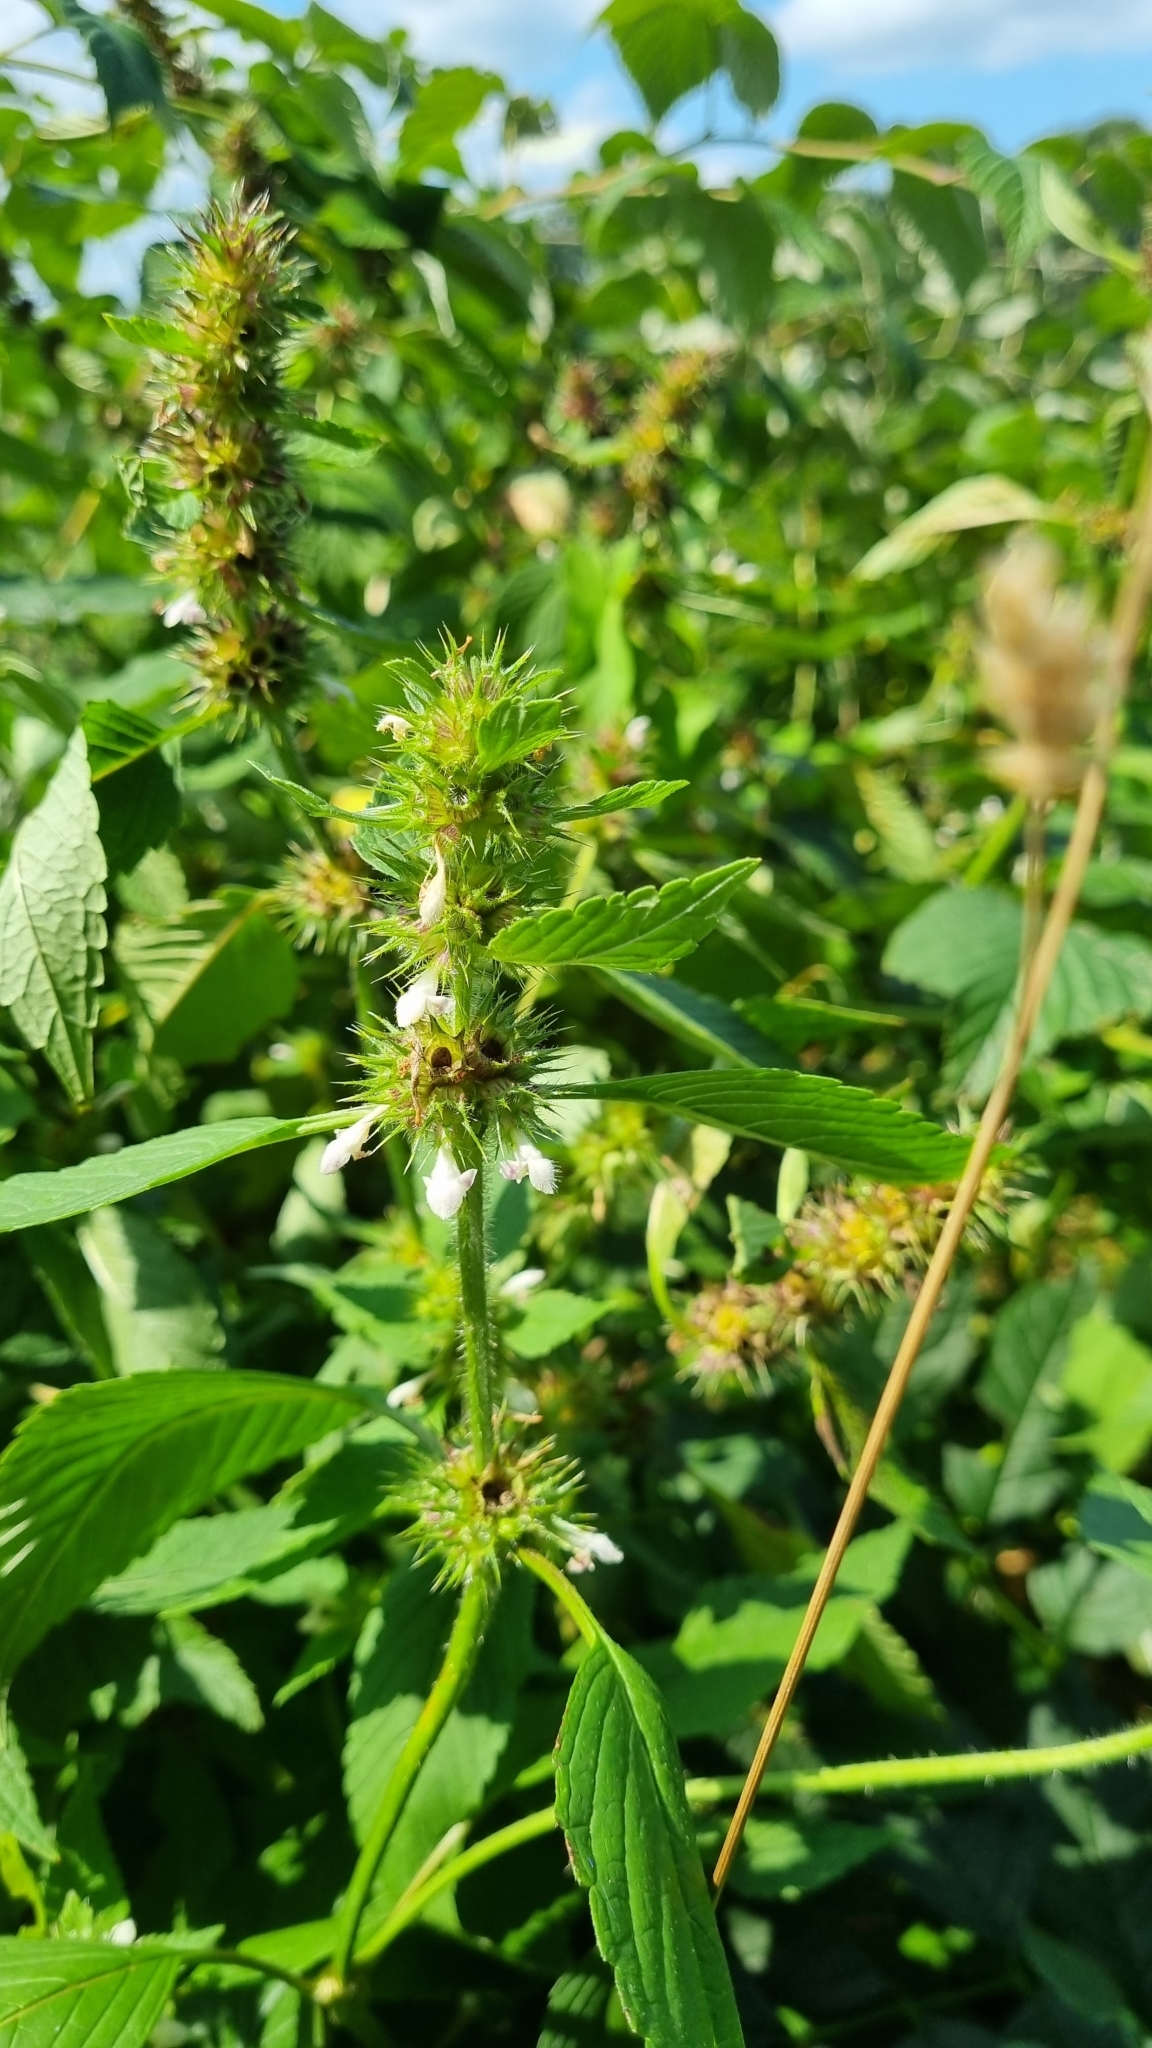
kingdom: Plantae
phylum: Tracheophyta
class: Magnoliopsida
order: Lamiales
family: Lamiaceae
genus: Galeopsis
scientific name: Galeopsis tetrahit
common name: Common hemp-nettle
